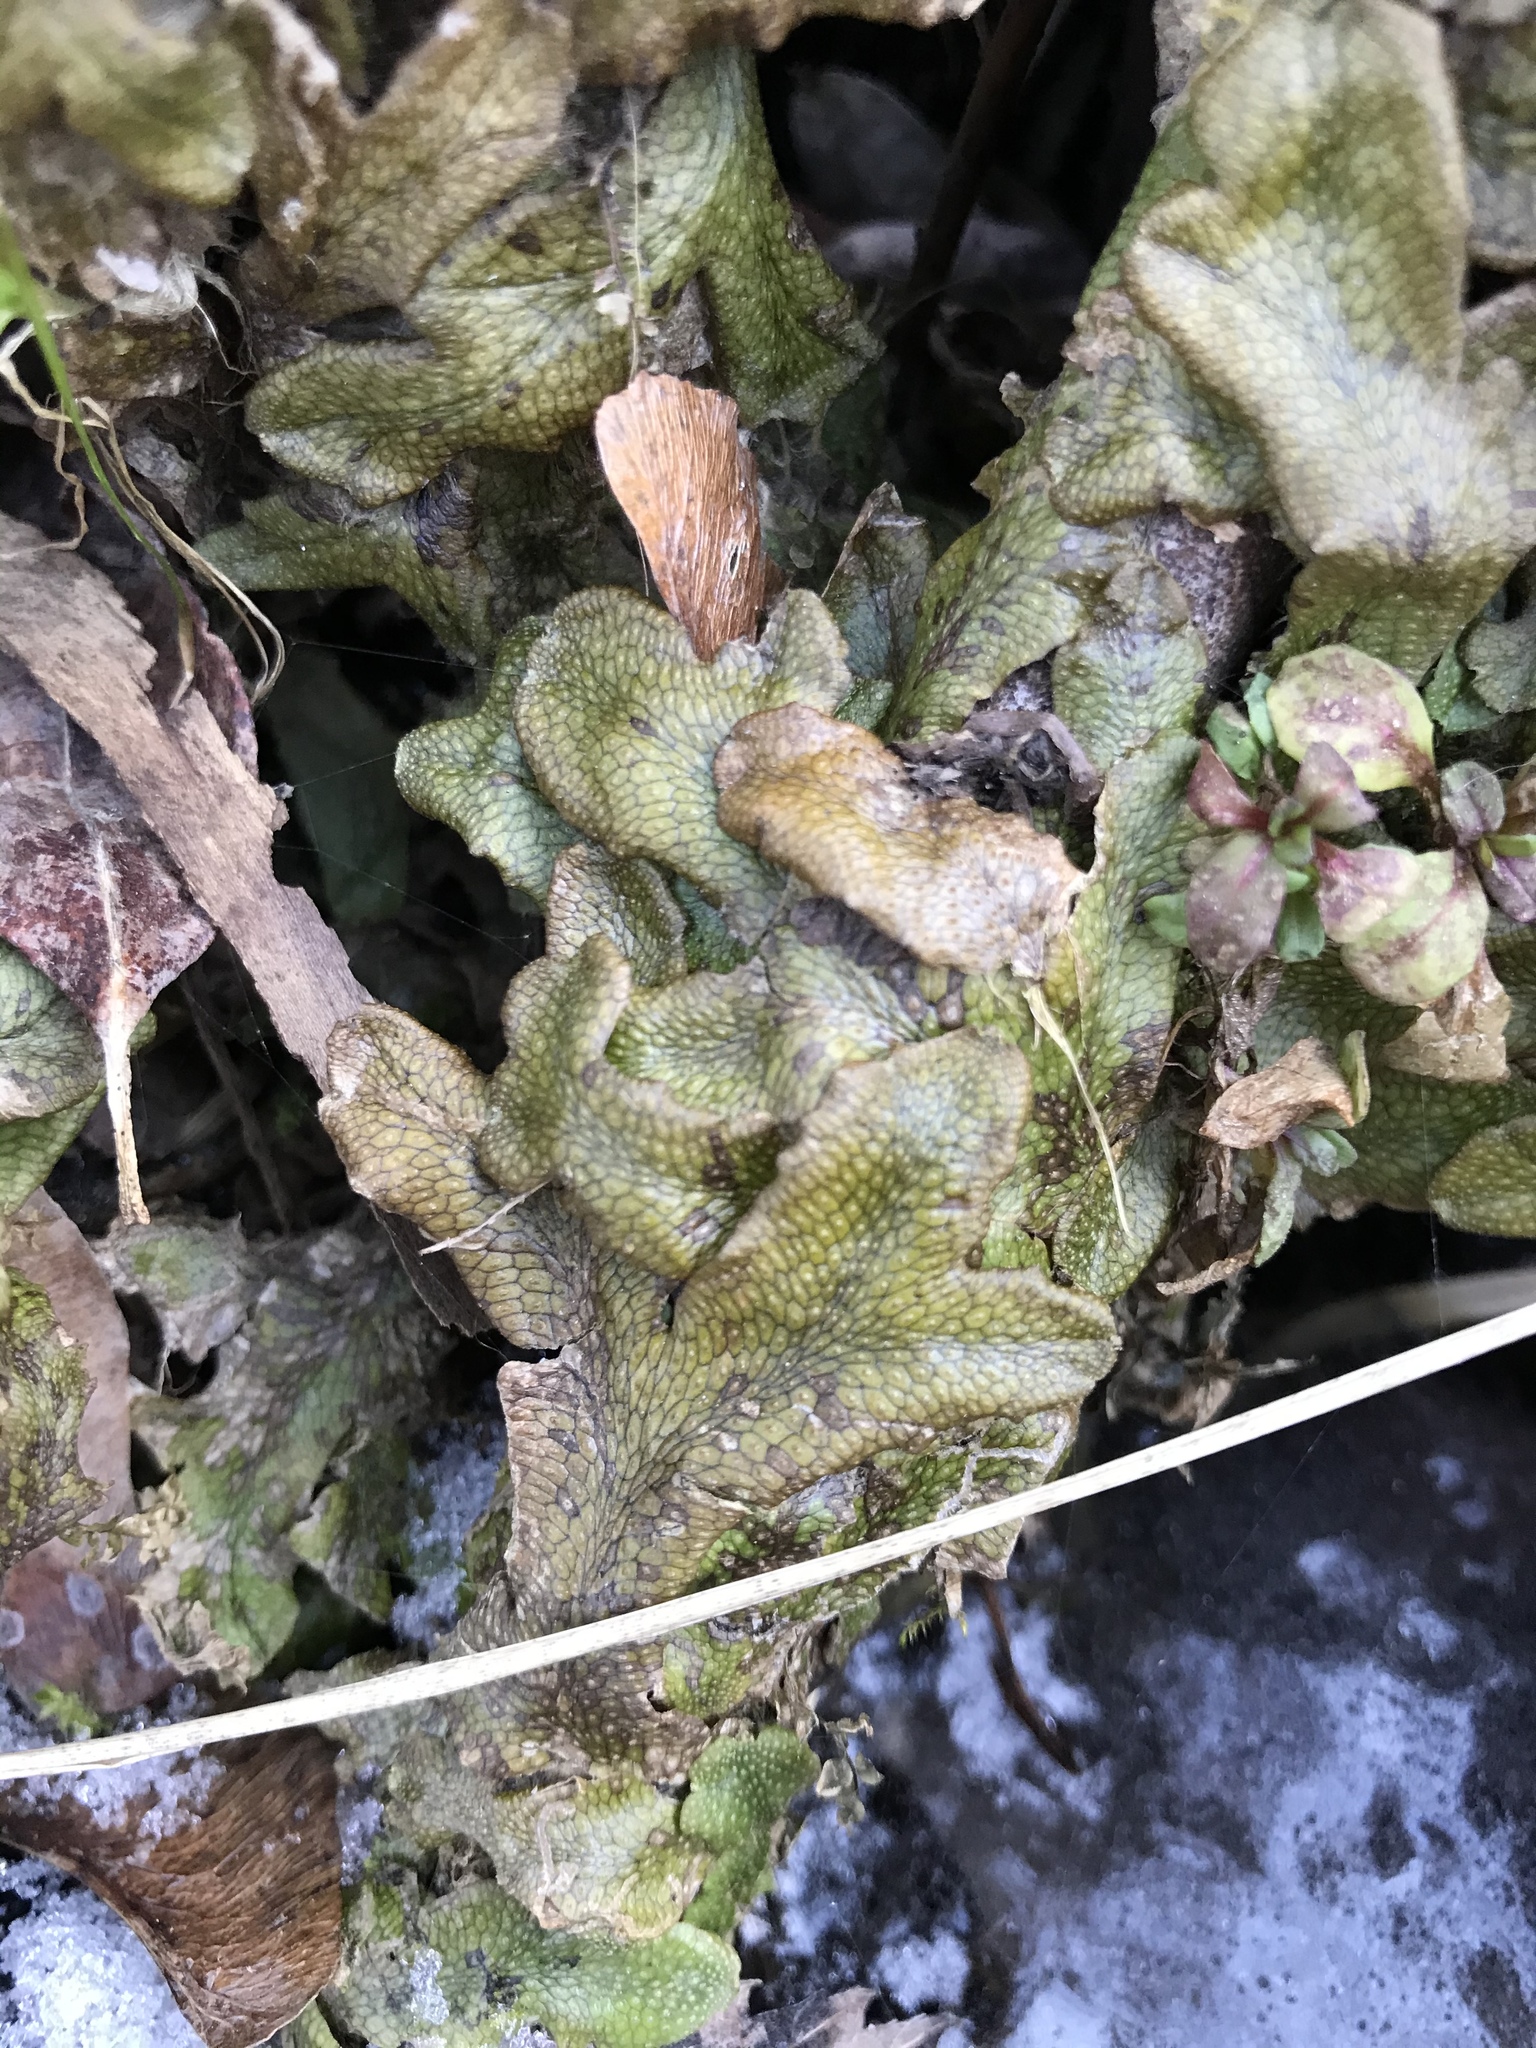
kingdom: Plantae
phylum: Marchantiophyta
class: Marchantiopsida
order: Marchantiales
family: Conocephalaceae
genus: Conocephalum
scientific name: Conocephalum salebrosum
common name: Cat-tongue liverwort
